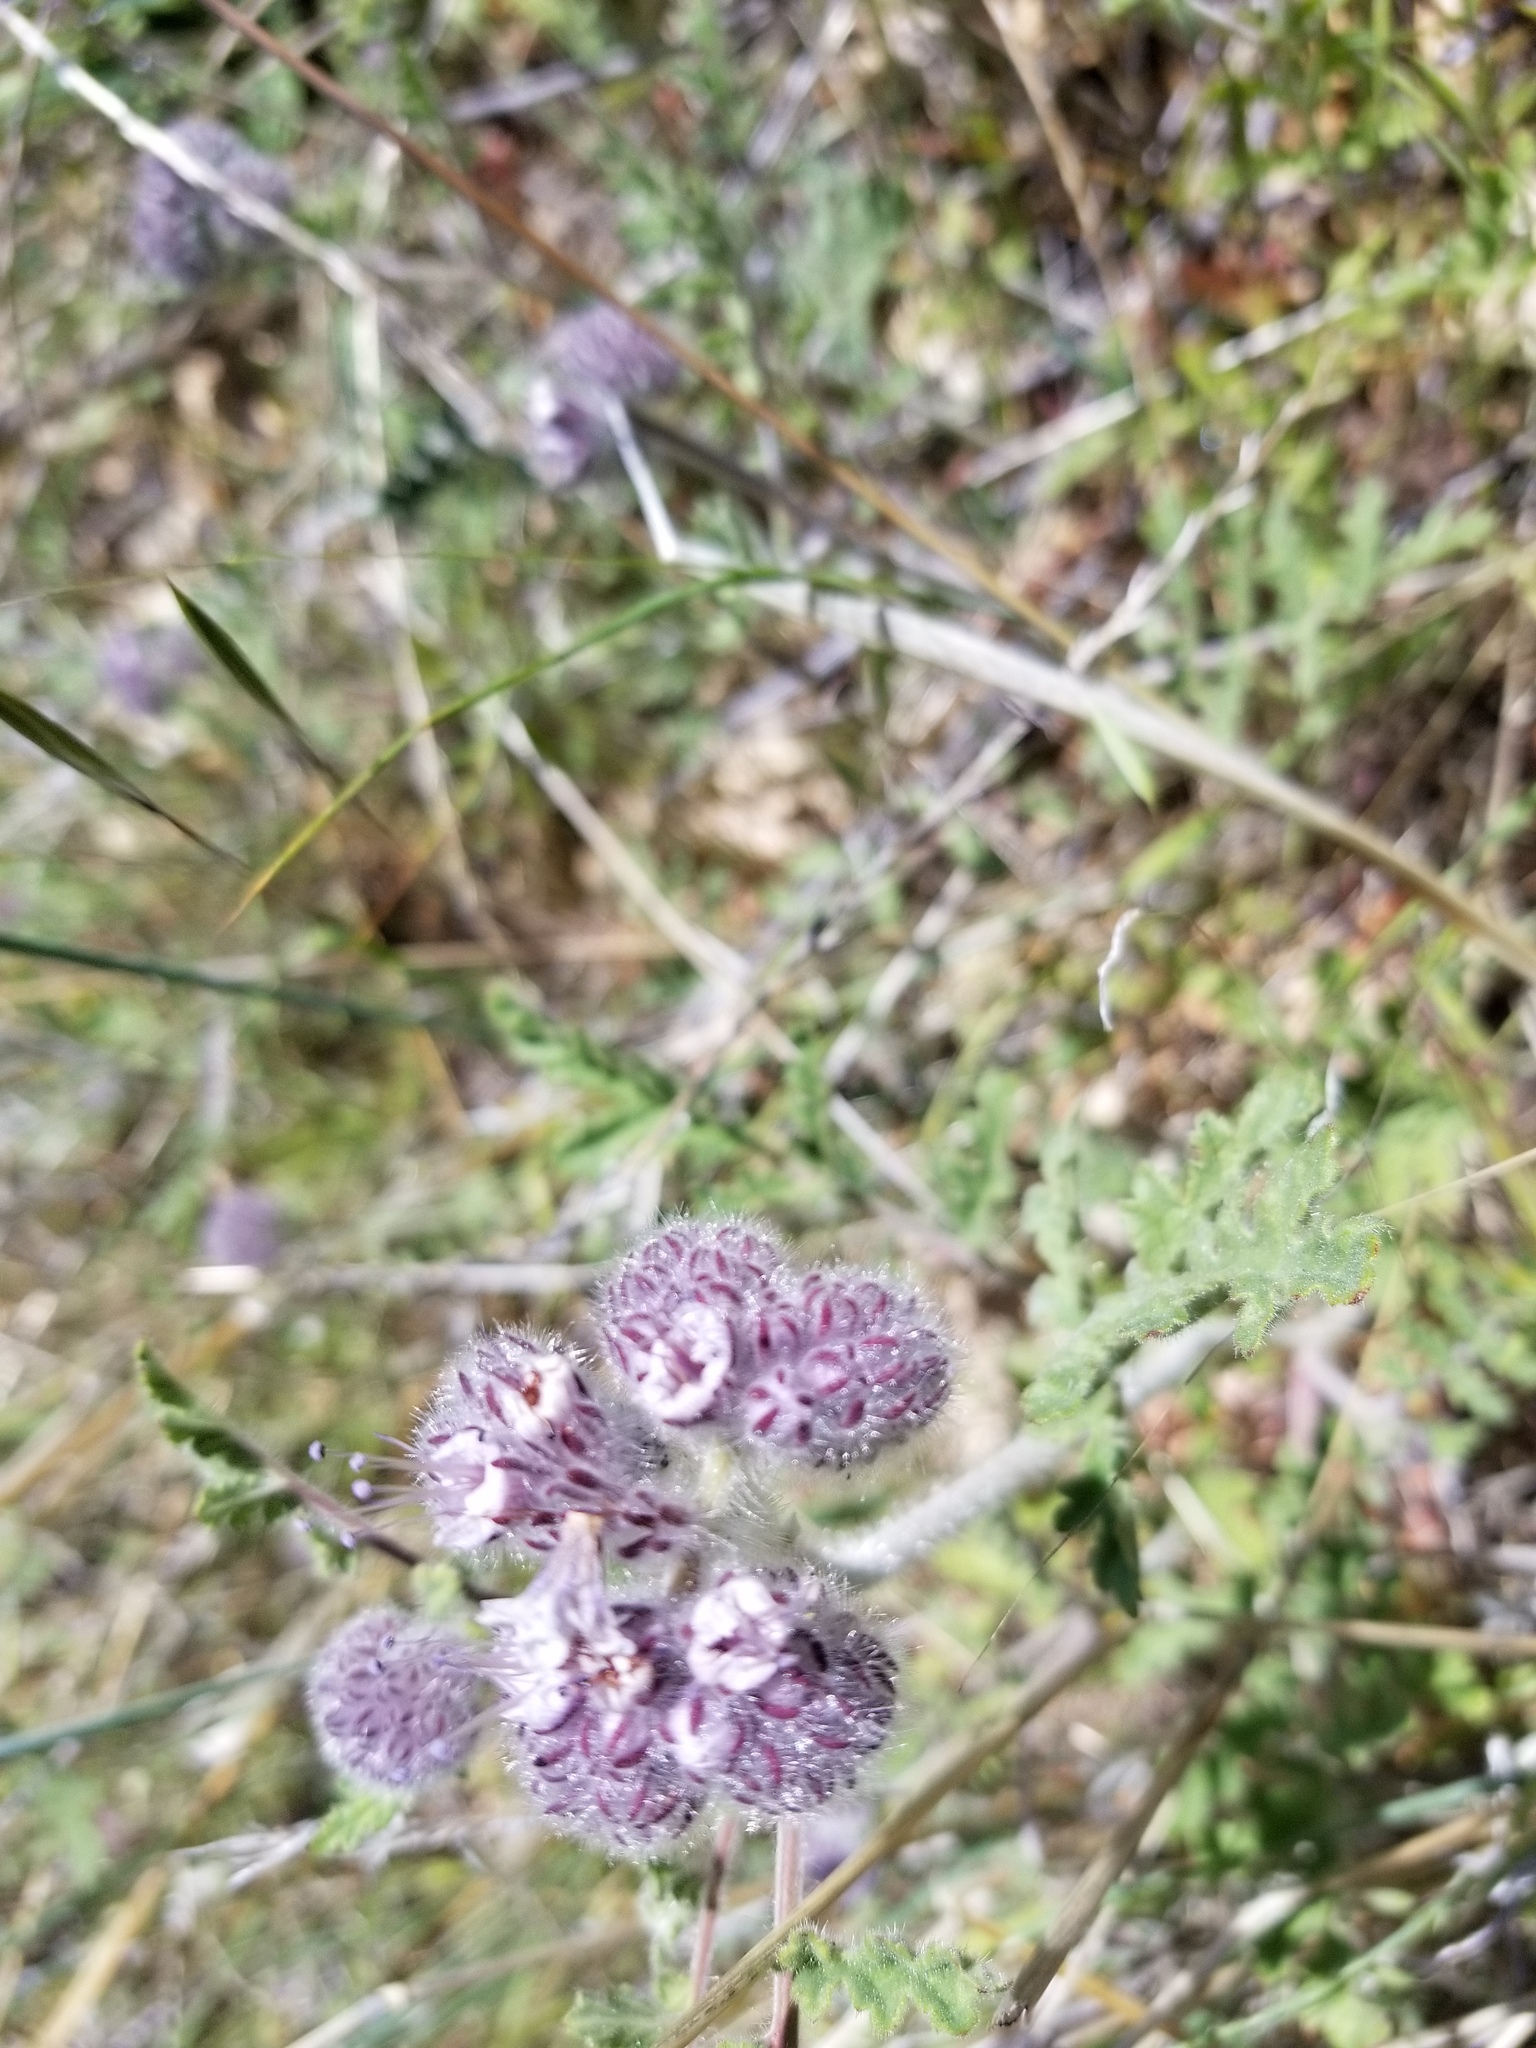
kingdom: Plantae
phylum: Tracheophyta
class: Magnoliopsida
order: Boraginales
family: Hydrophyllaceae
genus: Phacelia
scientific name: Phacelia hubbyi
